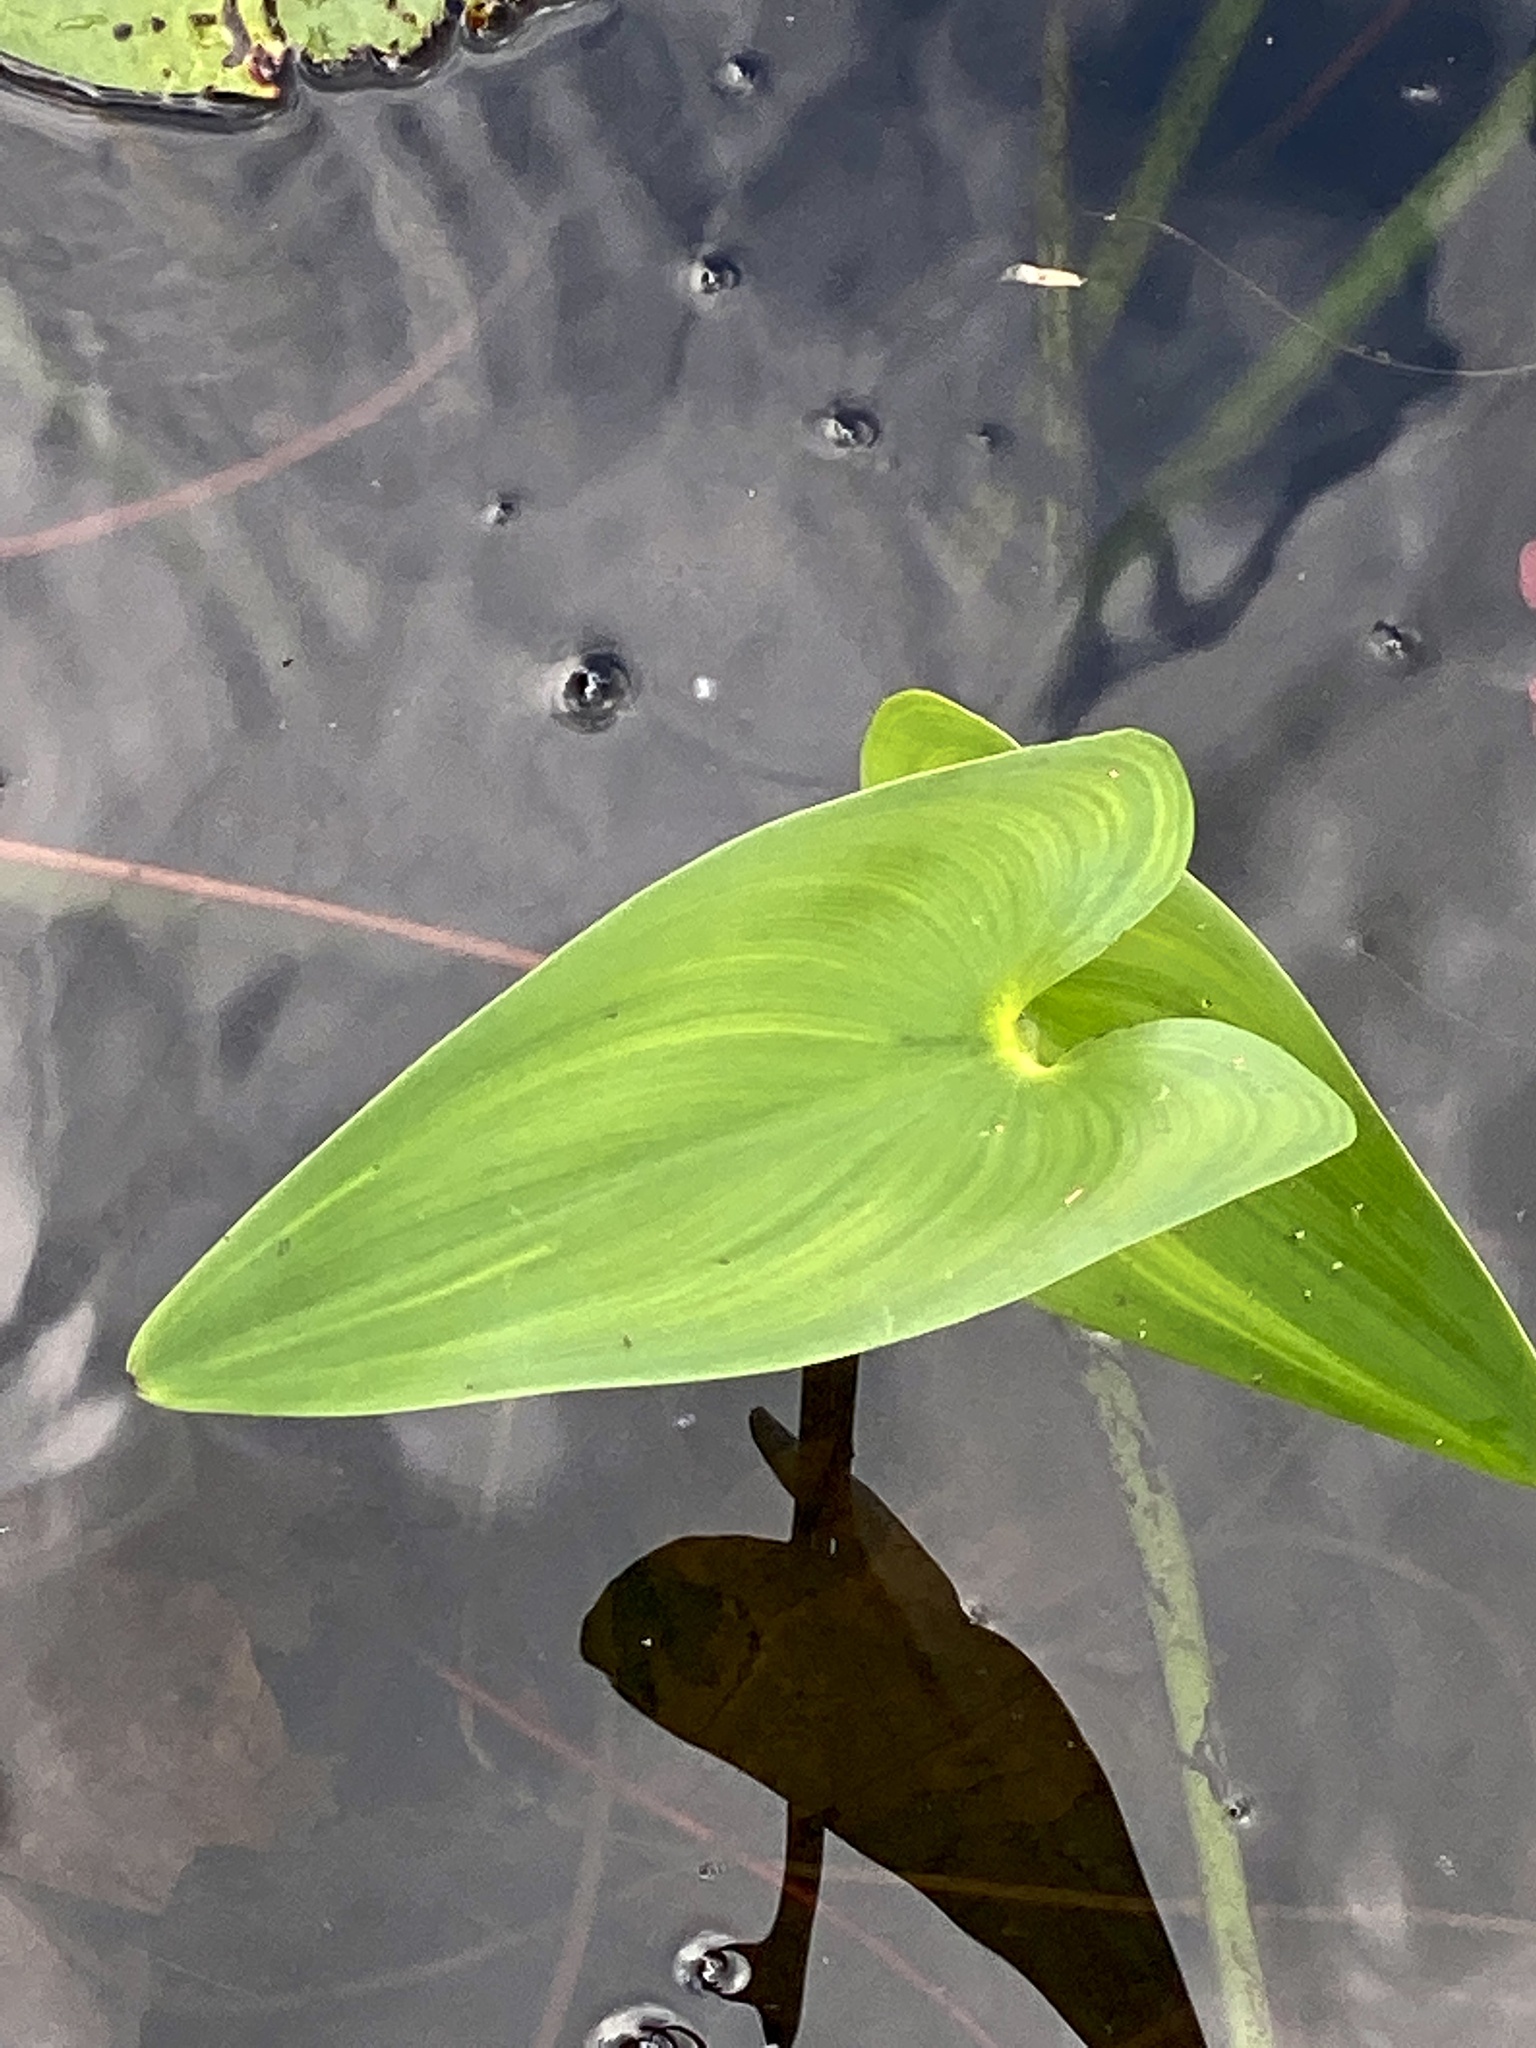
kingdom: Plantae
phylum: Tracheophyta
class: Liliopsida
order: Commelinales
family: Pontederiaceae
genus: Pontederia
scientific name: Pontederia cordata
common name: Pickerelweed
